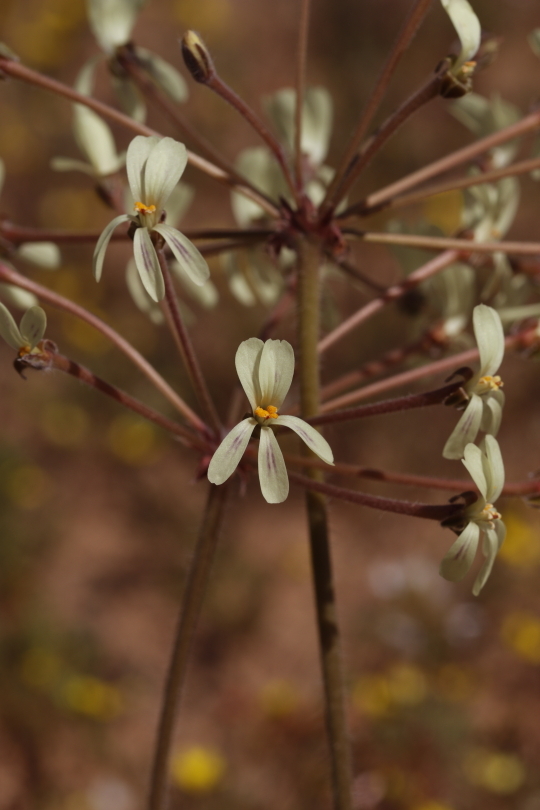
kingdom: Plantae
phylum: Tracheophyta
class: Magnoliopsida
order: Geraniales
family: Geraniaceae
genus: Pelargonium
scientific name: Pelargonium triste
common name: Night-scent pelargonium
